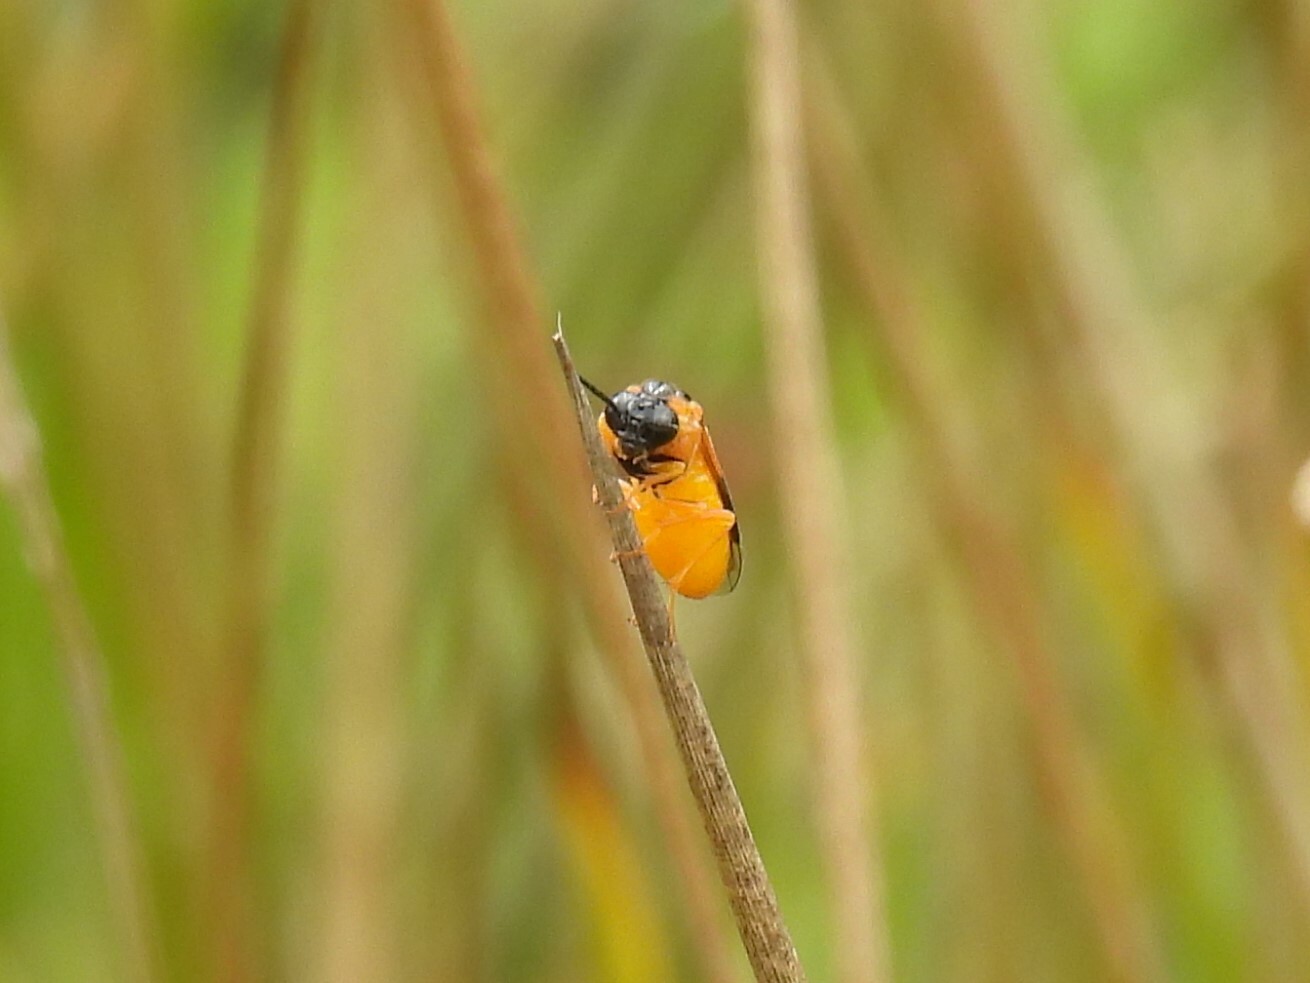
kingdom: Animalia
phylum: Arthropoda
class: Insecta
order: Hymenoptera
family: Tenthredinidae
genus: Selandria
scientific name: Selandria serva
